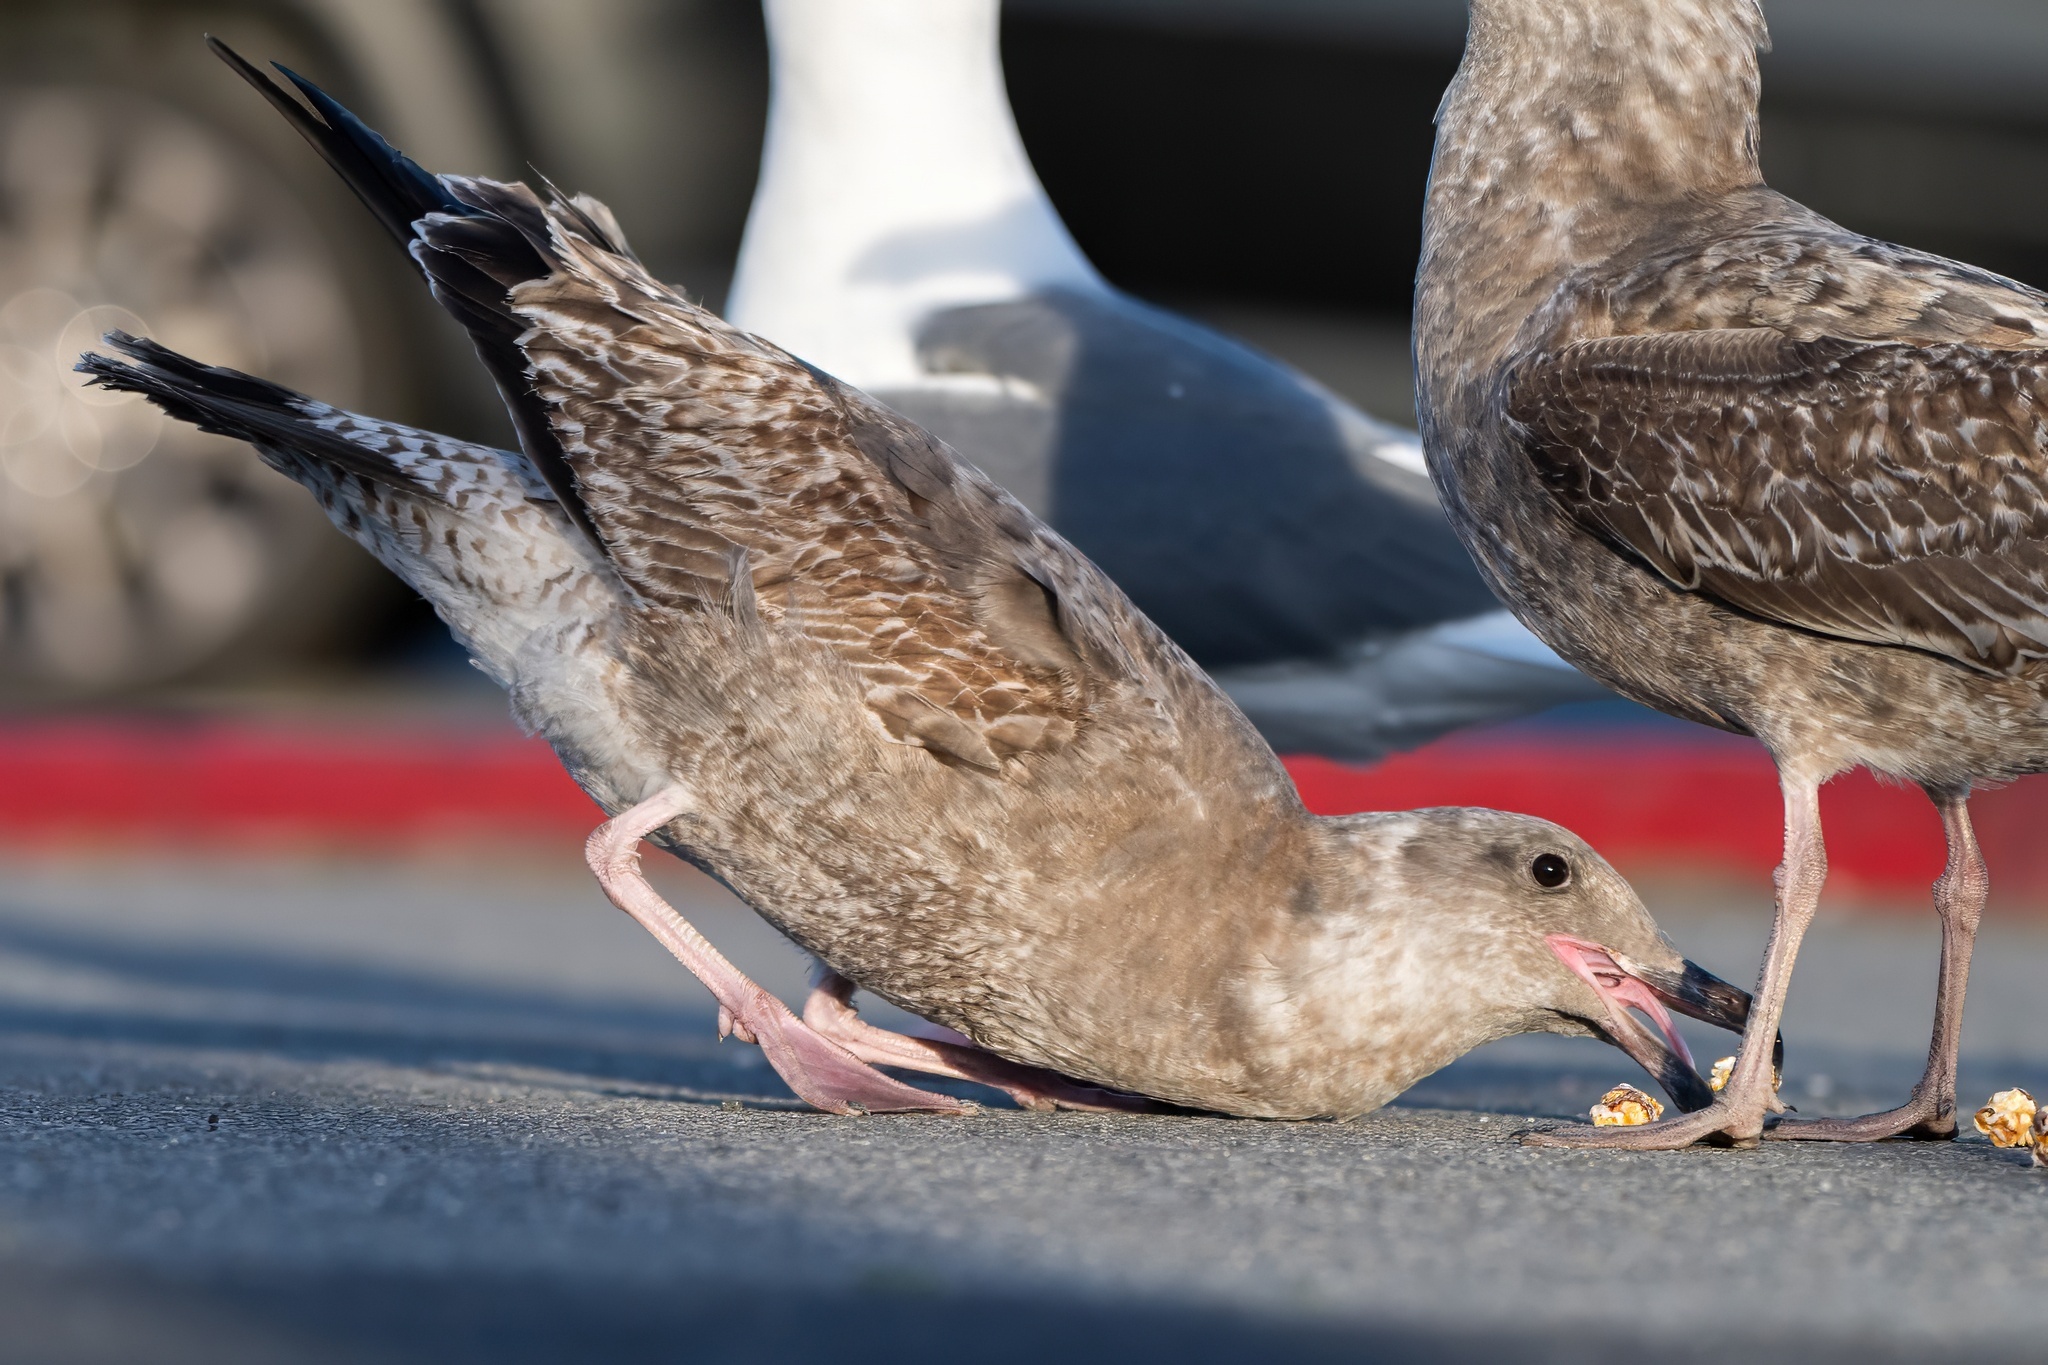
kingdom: Animalia
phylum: Chordata
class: Aves
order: Charadriiformes
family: Laridae
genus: Larus
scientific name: Larus occidentalis
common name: Western gull
